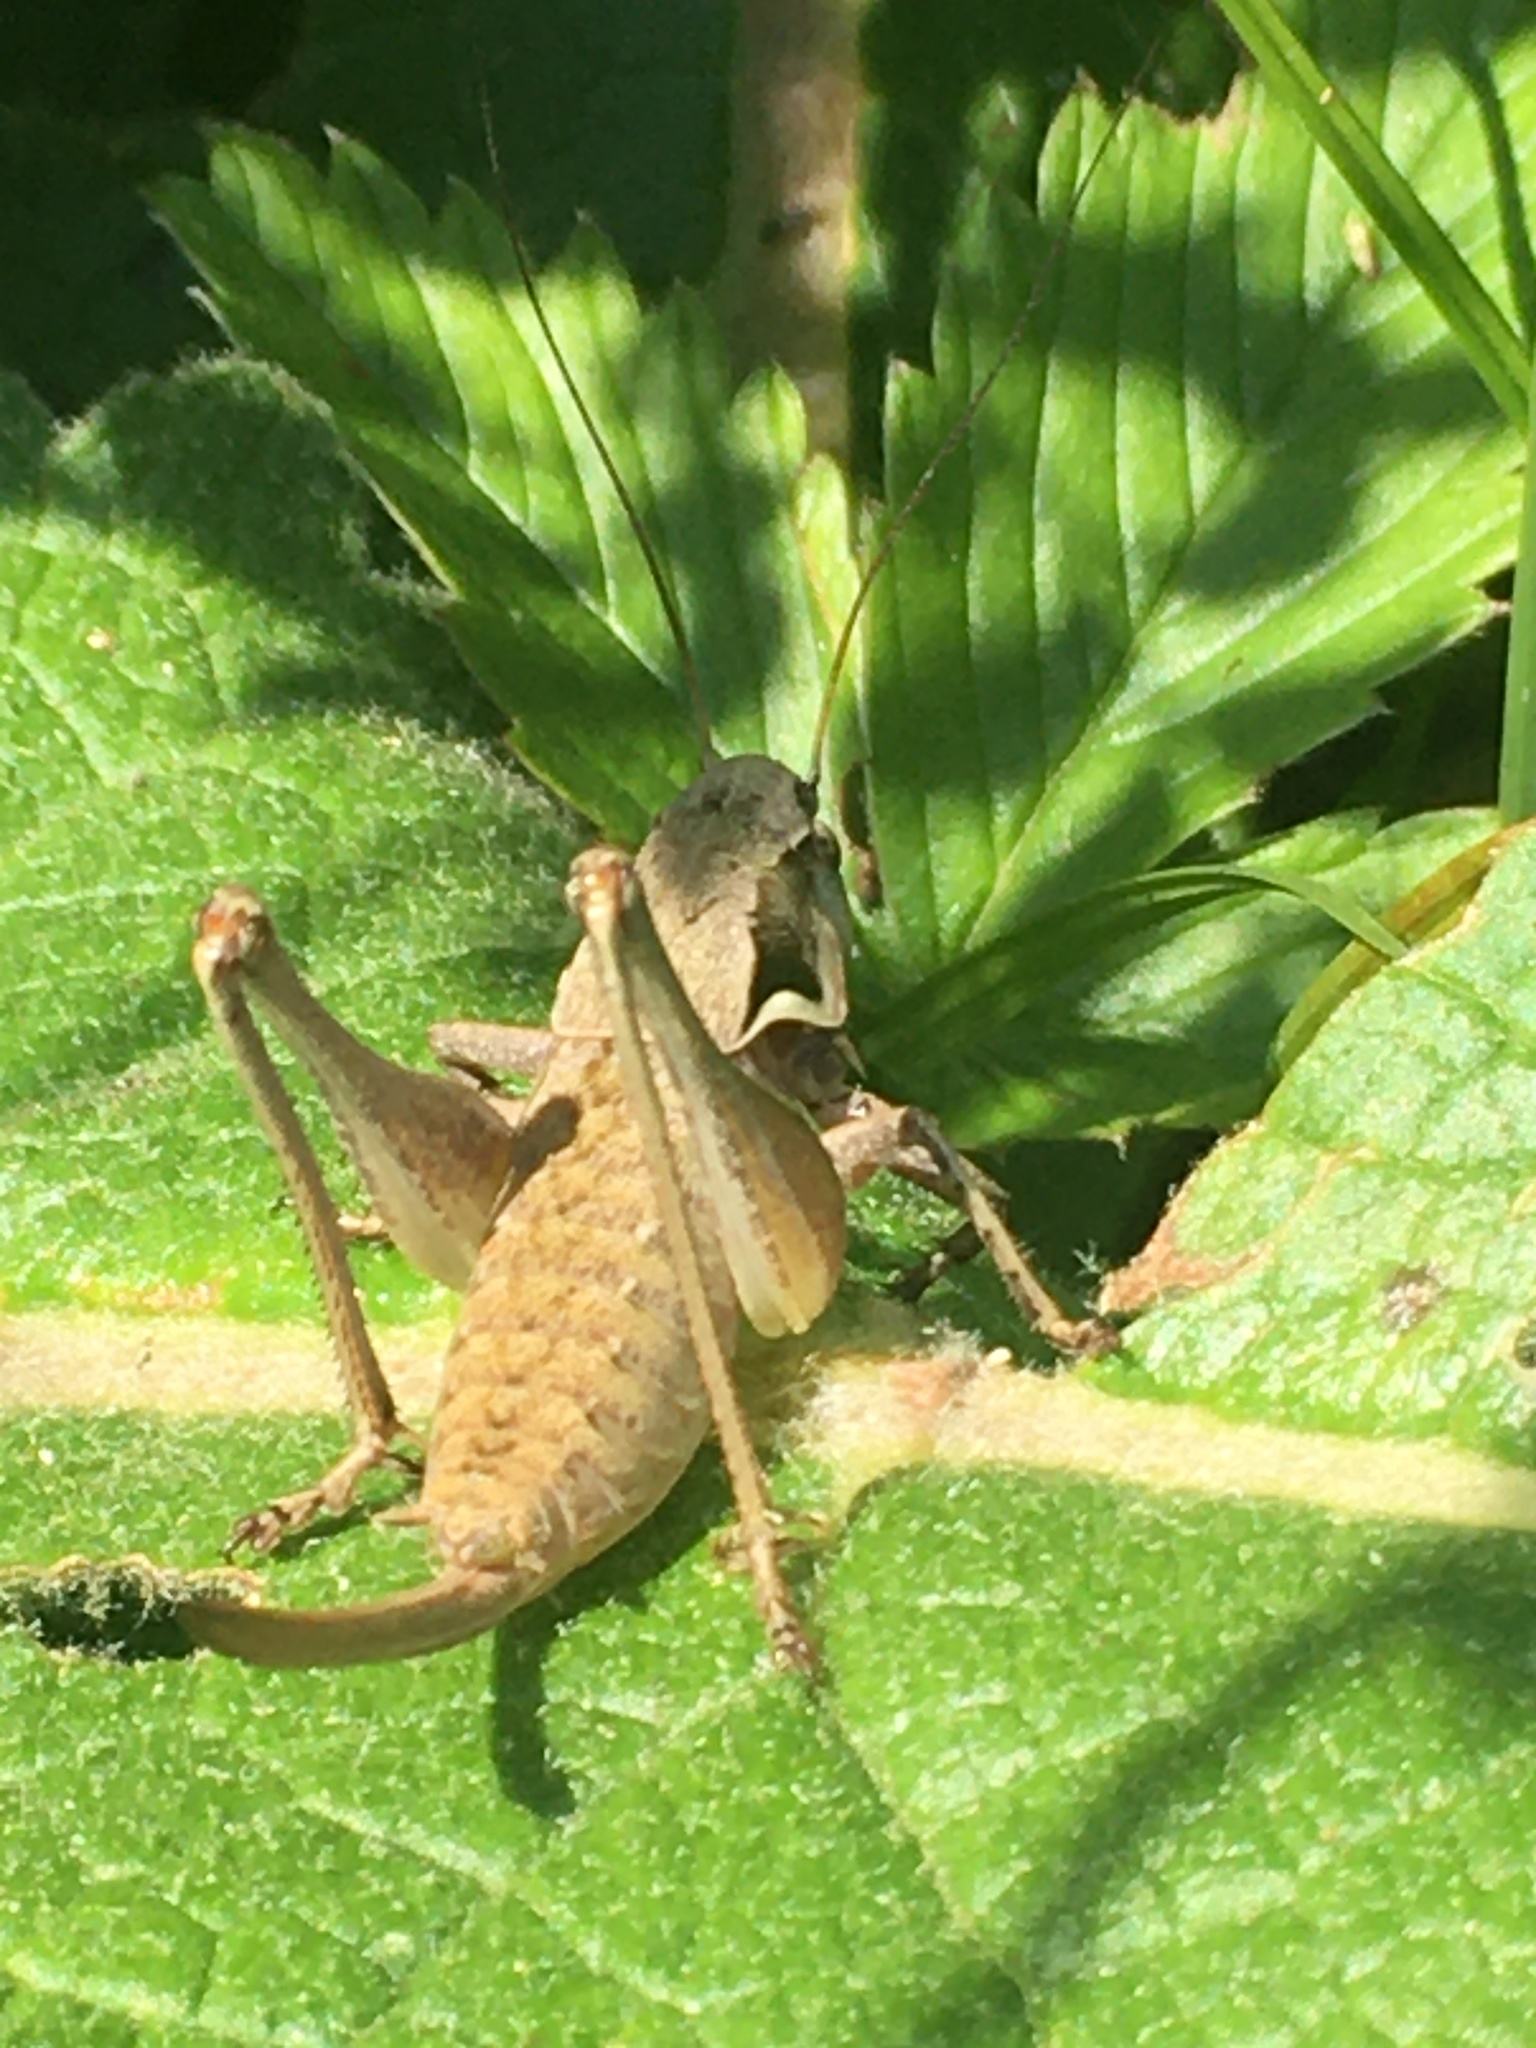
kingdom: Animalia
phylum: Arthropoda
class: Insecta
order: Orthoptera
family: Tettigoniidae
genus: Pholidoptera
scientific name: Pholidoptera pustulipes
